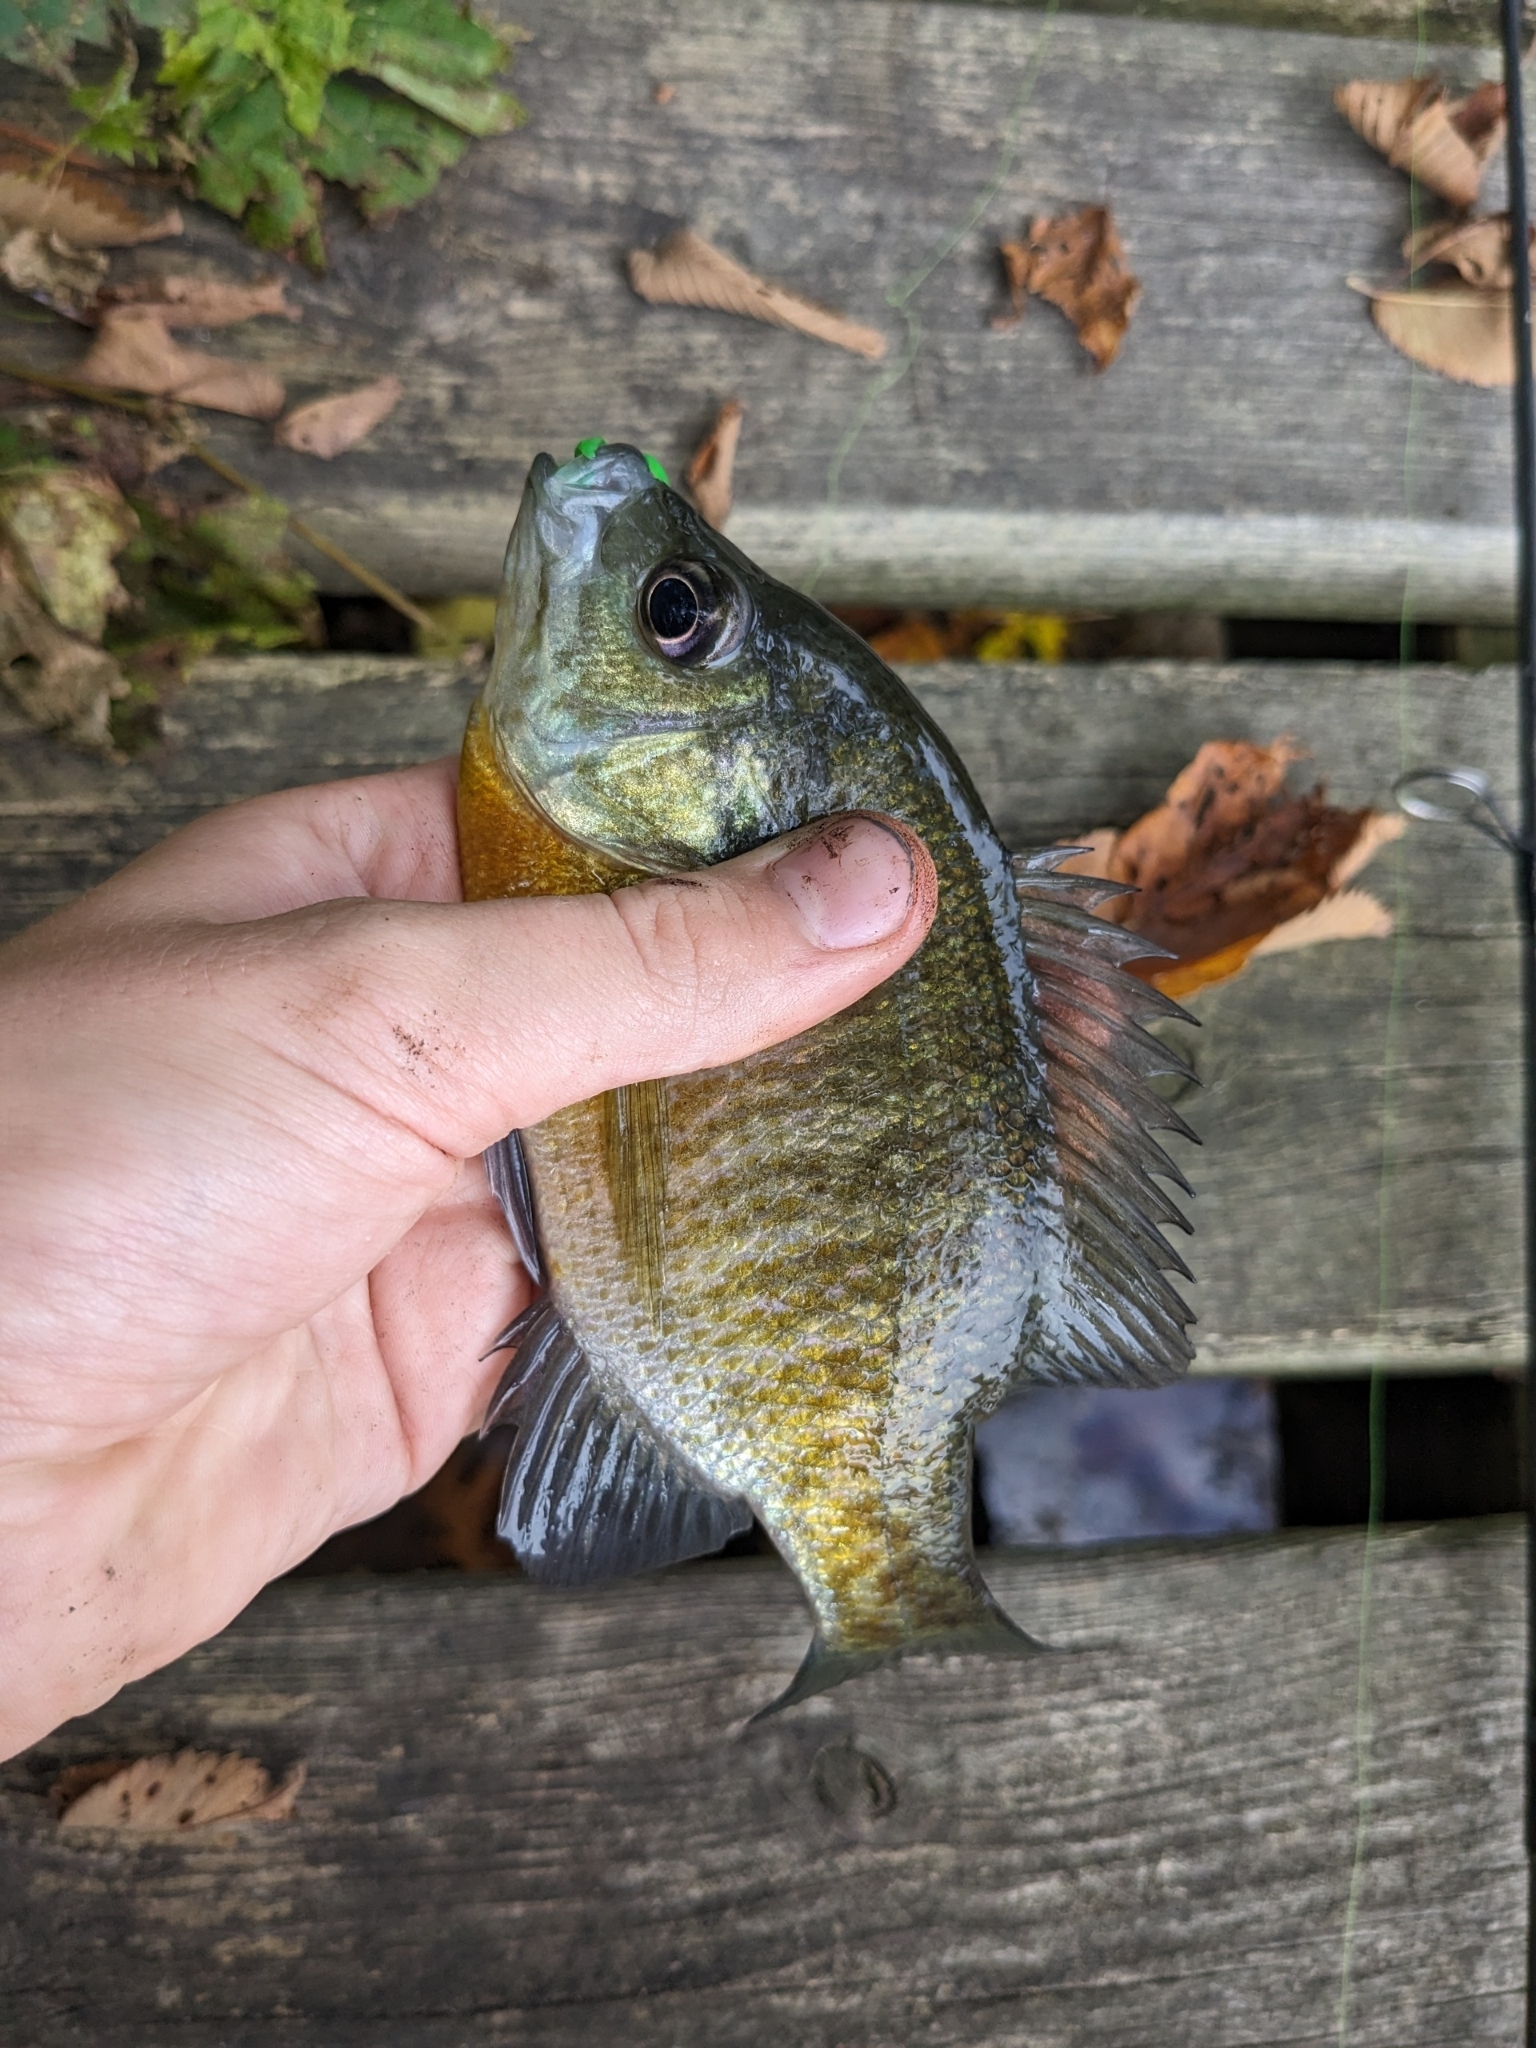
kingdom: Animalia
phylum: Chordata
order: Perciformes
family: Centrarchidae
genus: Lepomis
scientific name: Lepomis macrochirus
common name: Bluegill
